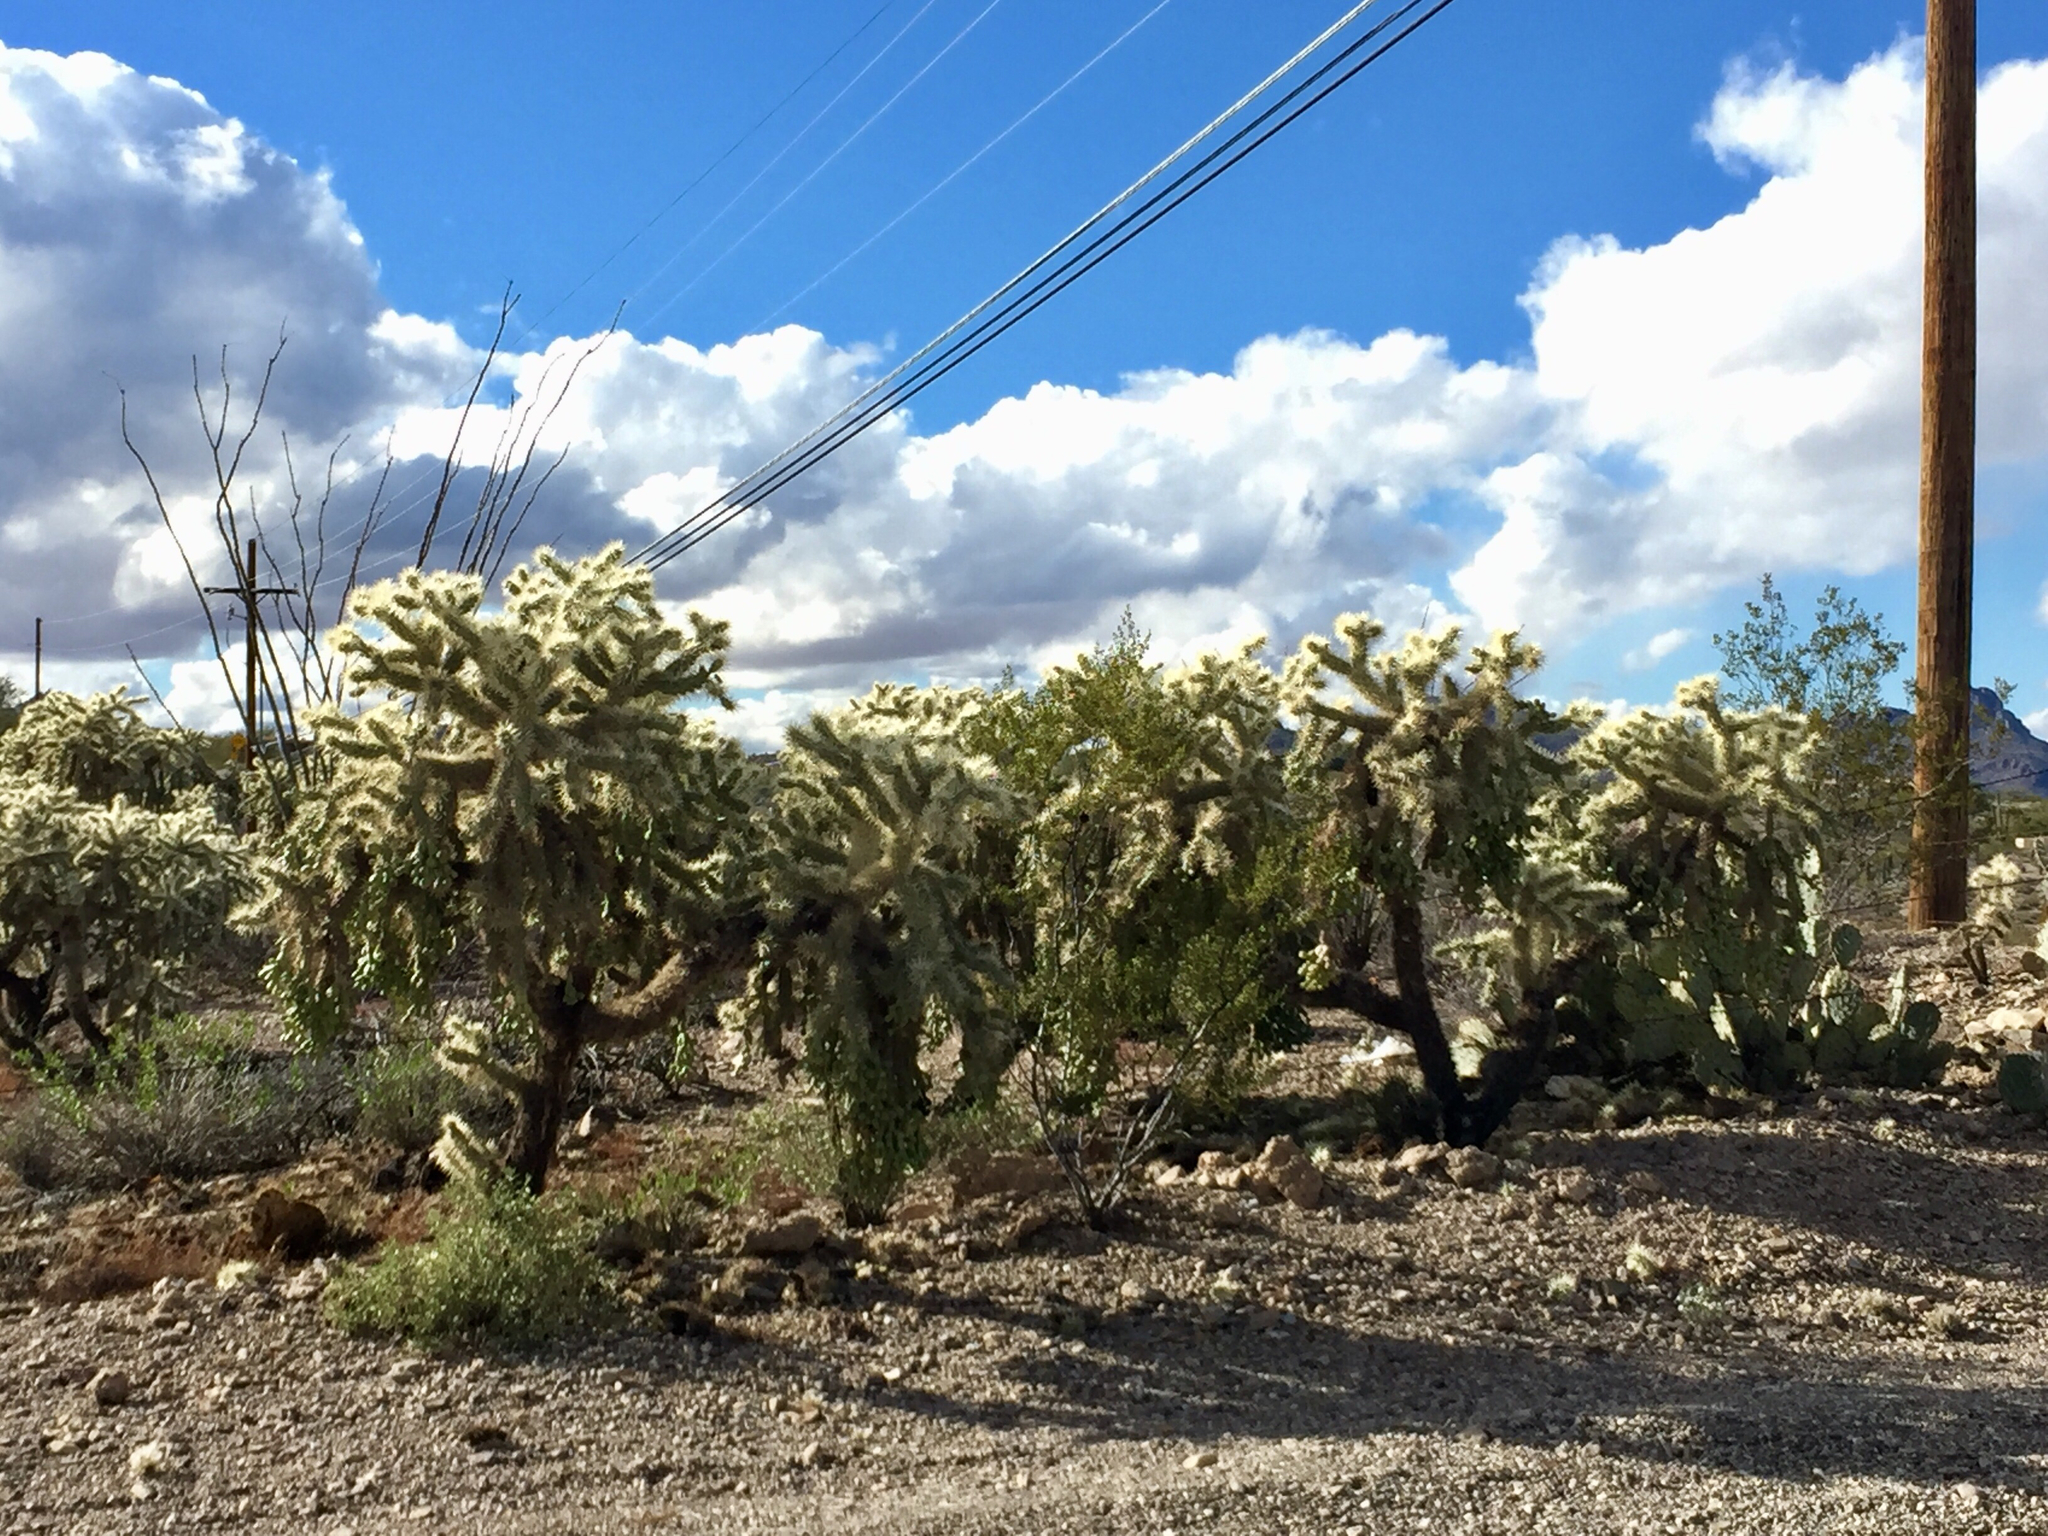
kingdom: Plantae
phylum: Tracheophyta
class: Magnoliopsida
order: Caryophyllales
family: Cactaceae
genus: Cylindropuntia
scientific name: Cylindropuntia fulgida
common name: Jumping cholla
